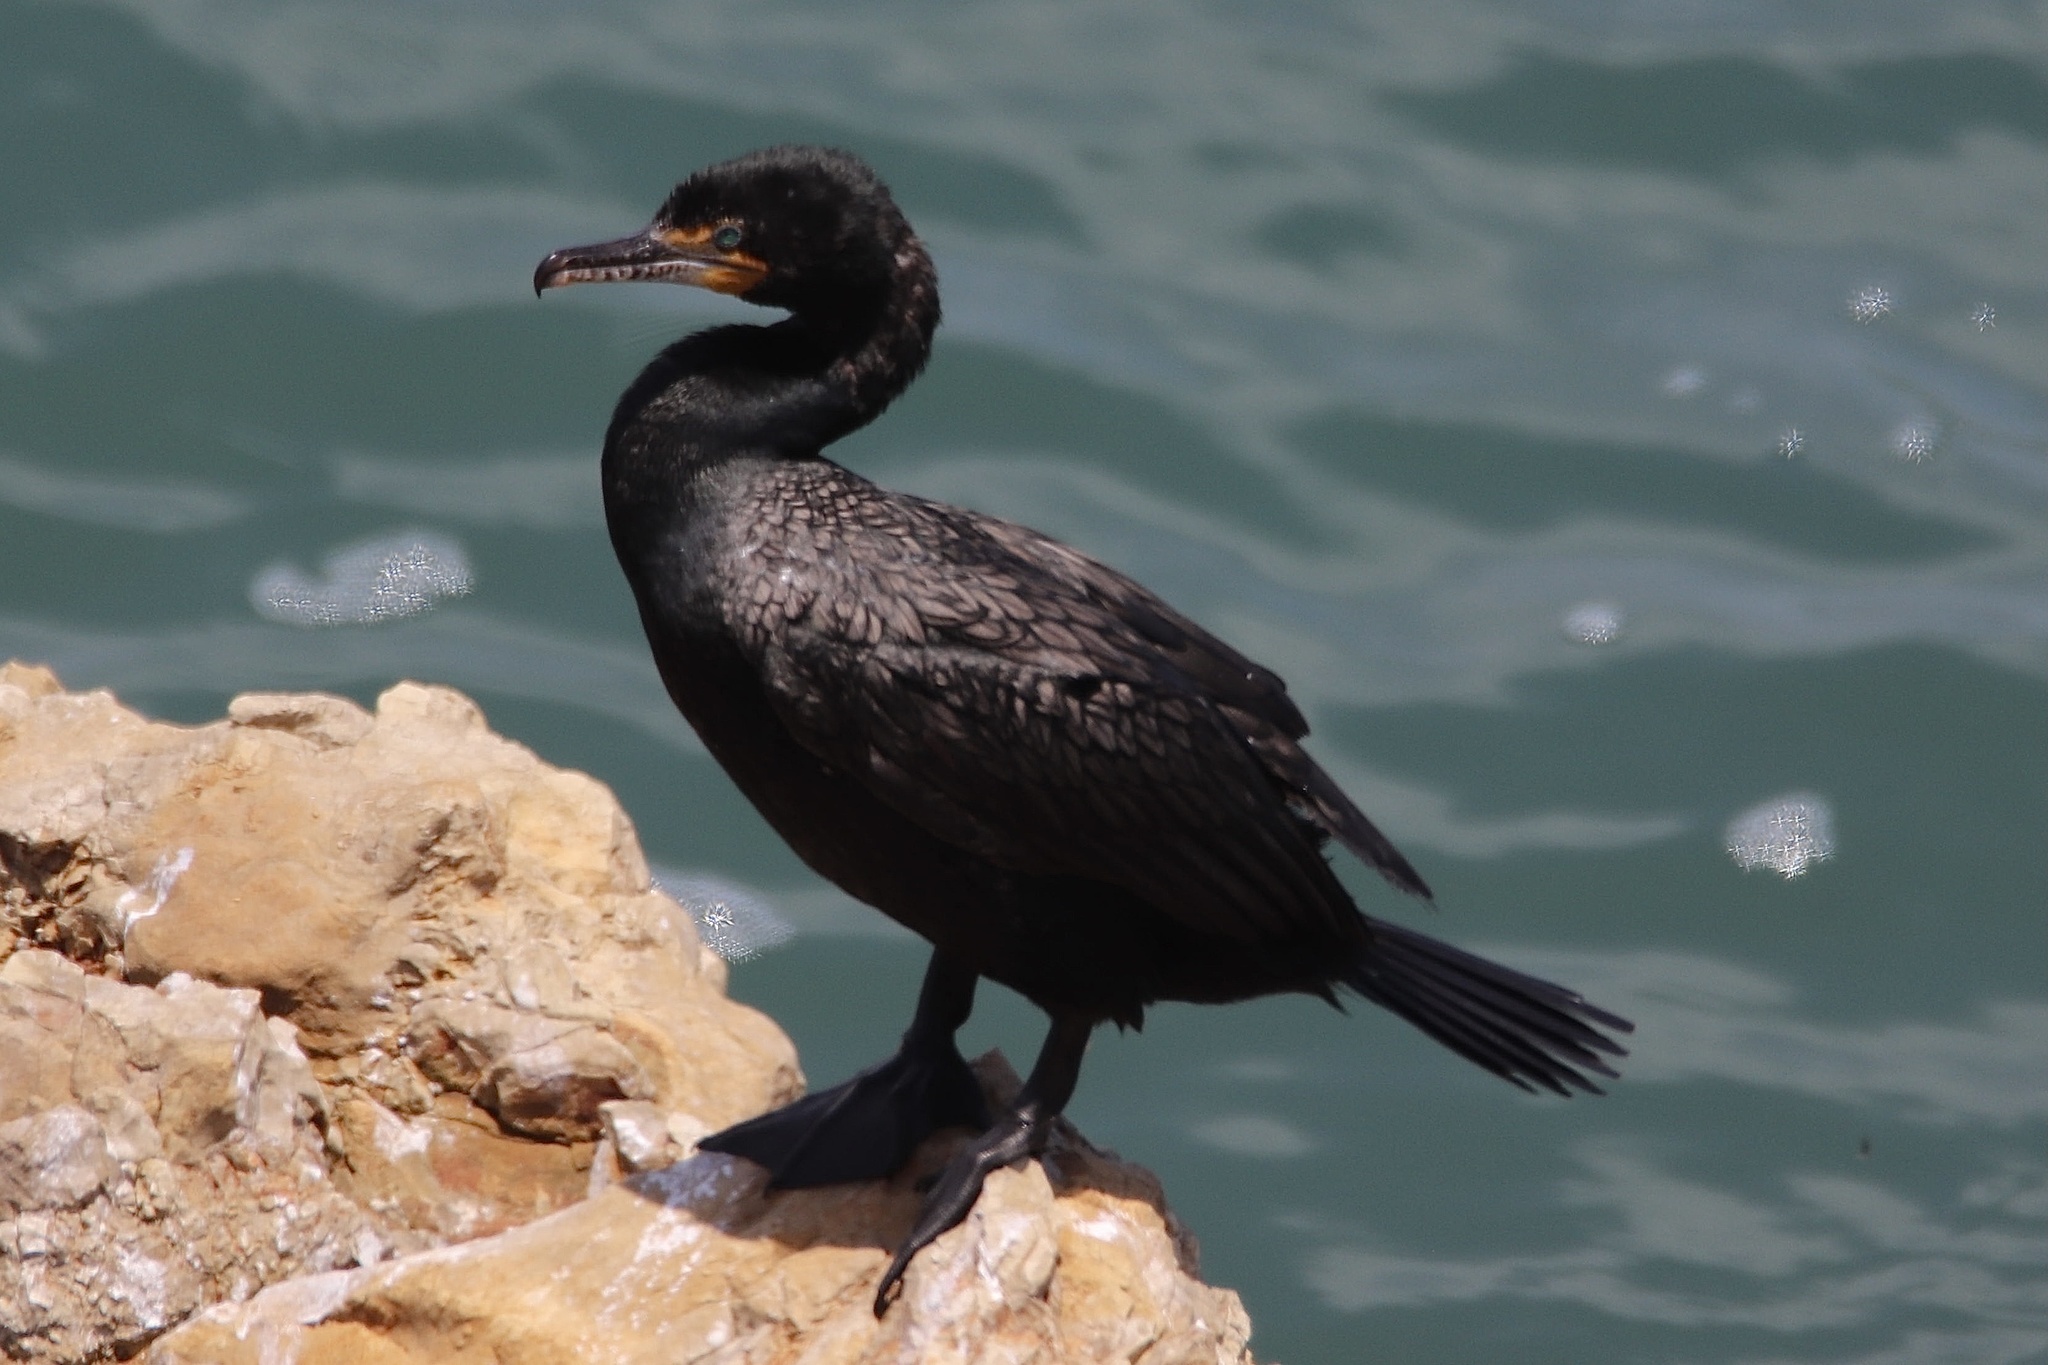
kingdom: Animalia
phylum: Chordata
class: Aves
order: Suliformes
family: Phalacrocoracidae
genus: Phalacrocorax
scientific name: Phalacrocorax auritus
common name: Double-crested cormorant
